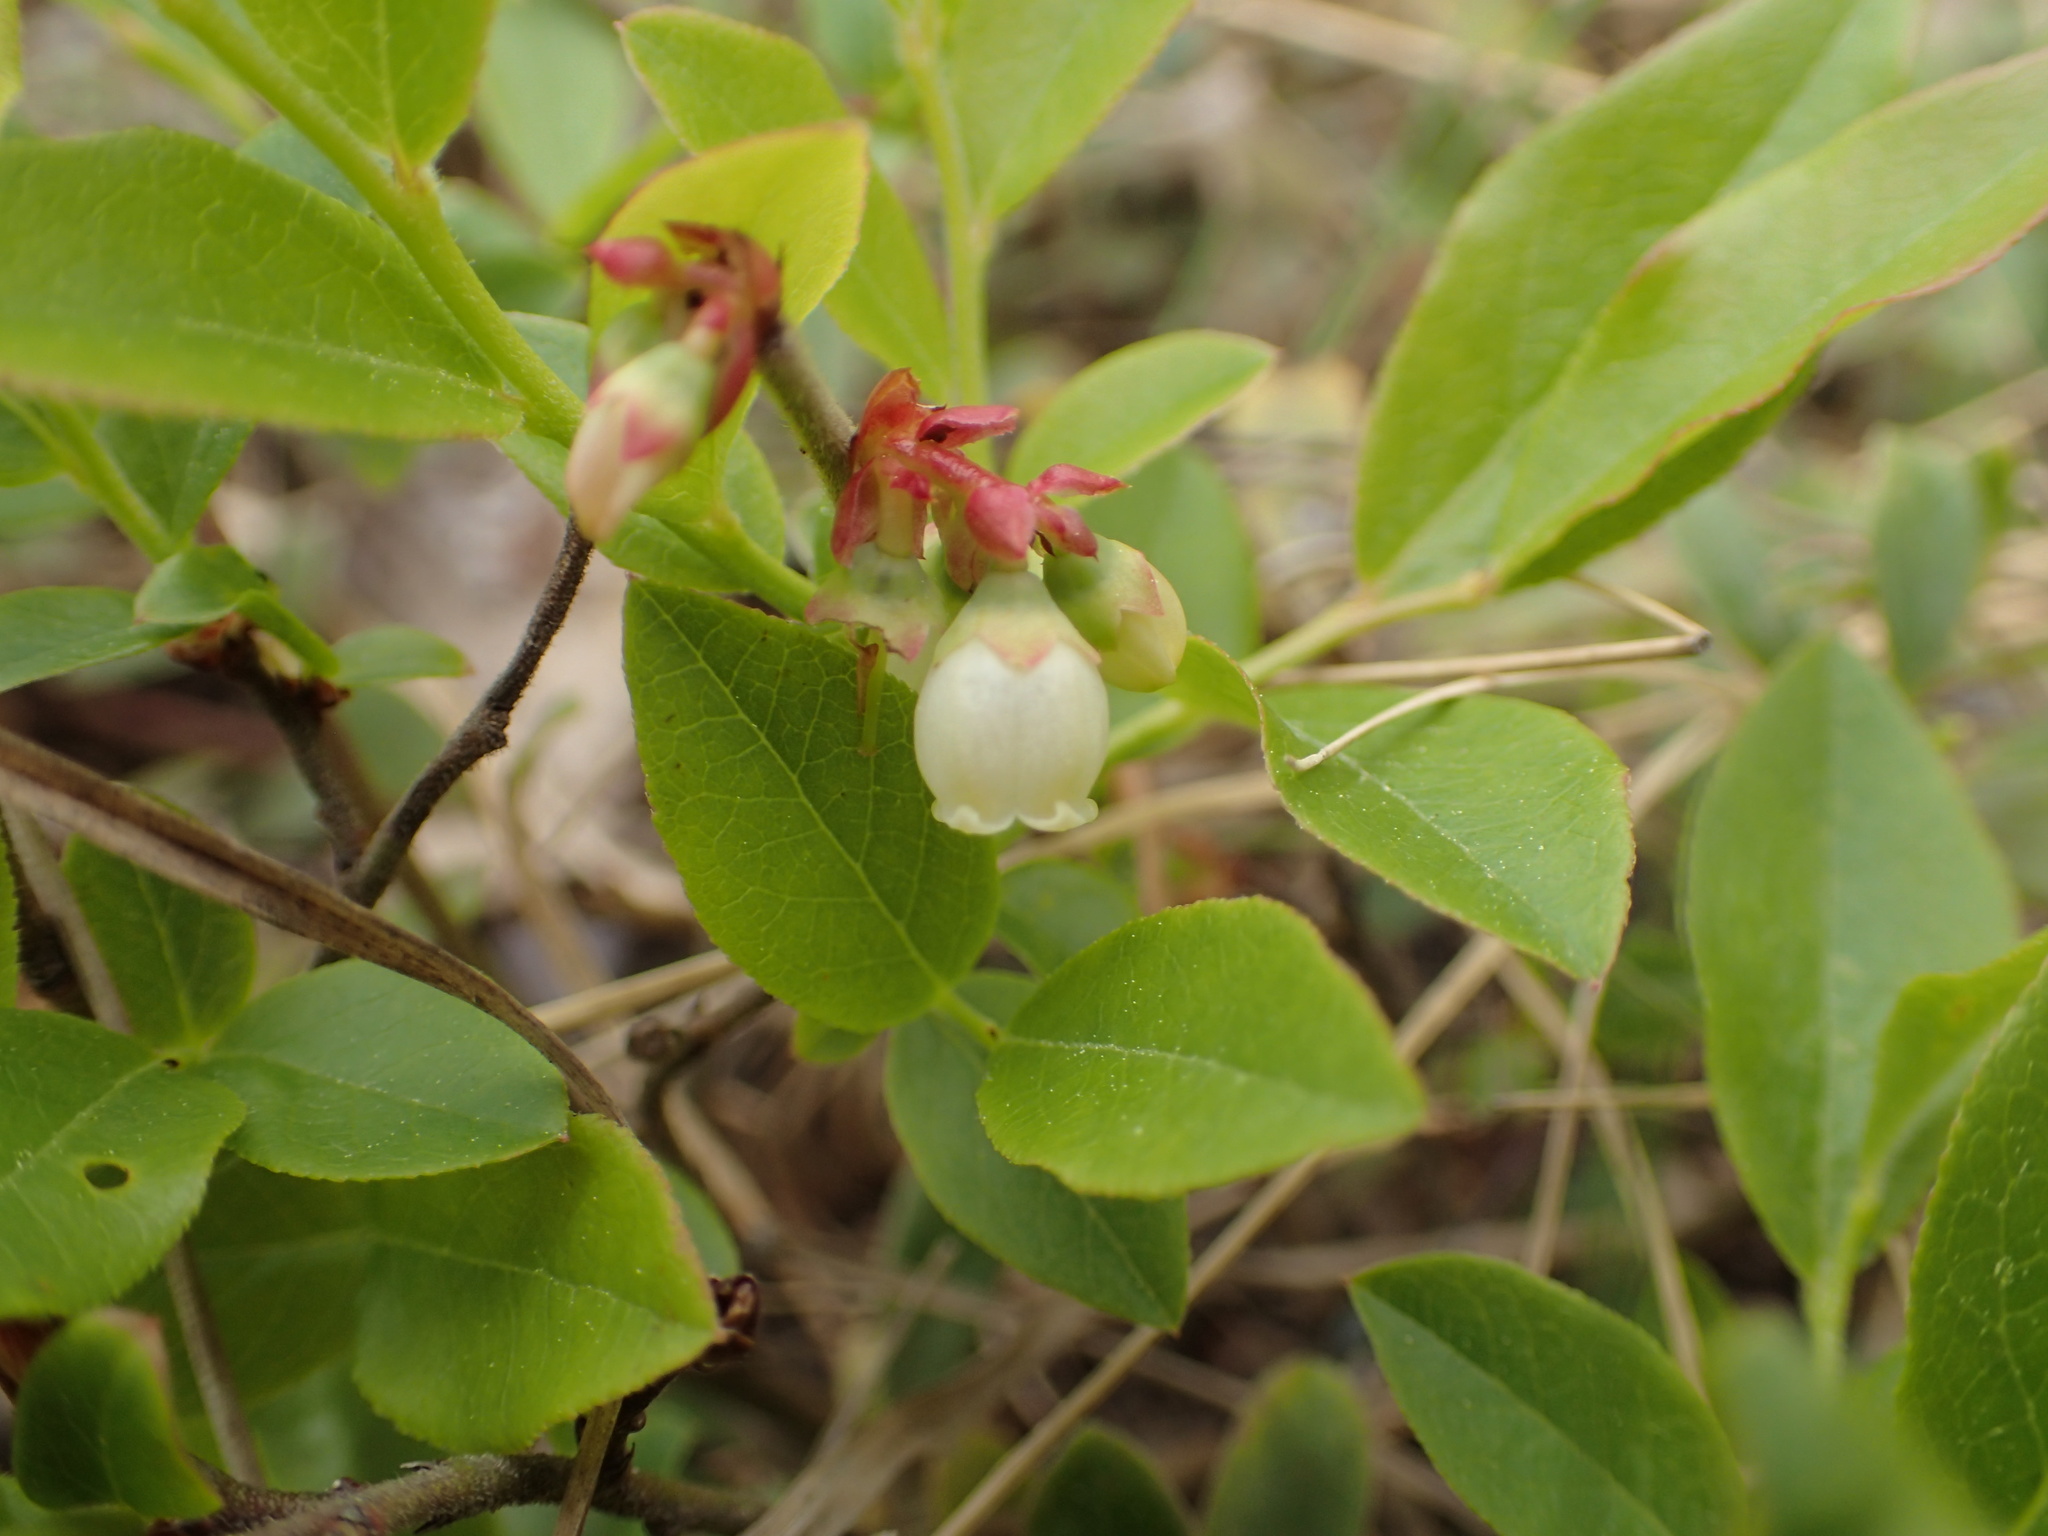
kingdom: Plantae
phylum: Tracheophyta
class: Magnoliopsida
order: Ericales
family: Ericaceae
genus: Vaccinium
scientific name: Vaccinium angustifolium
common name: Early lowbush blueberry
